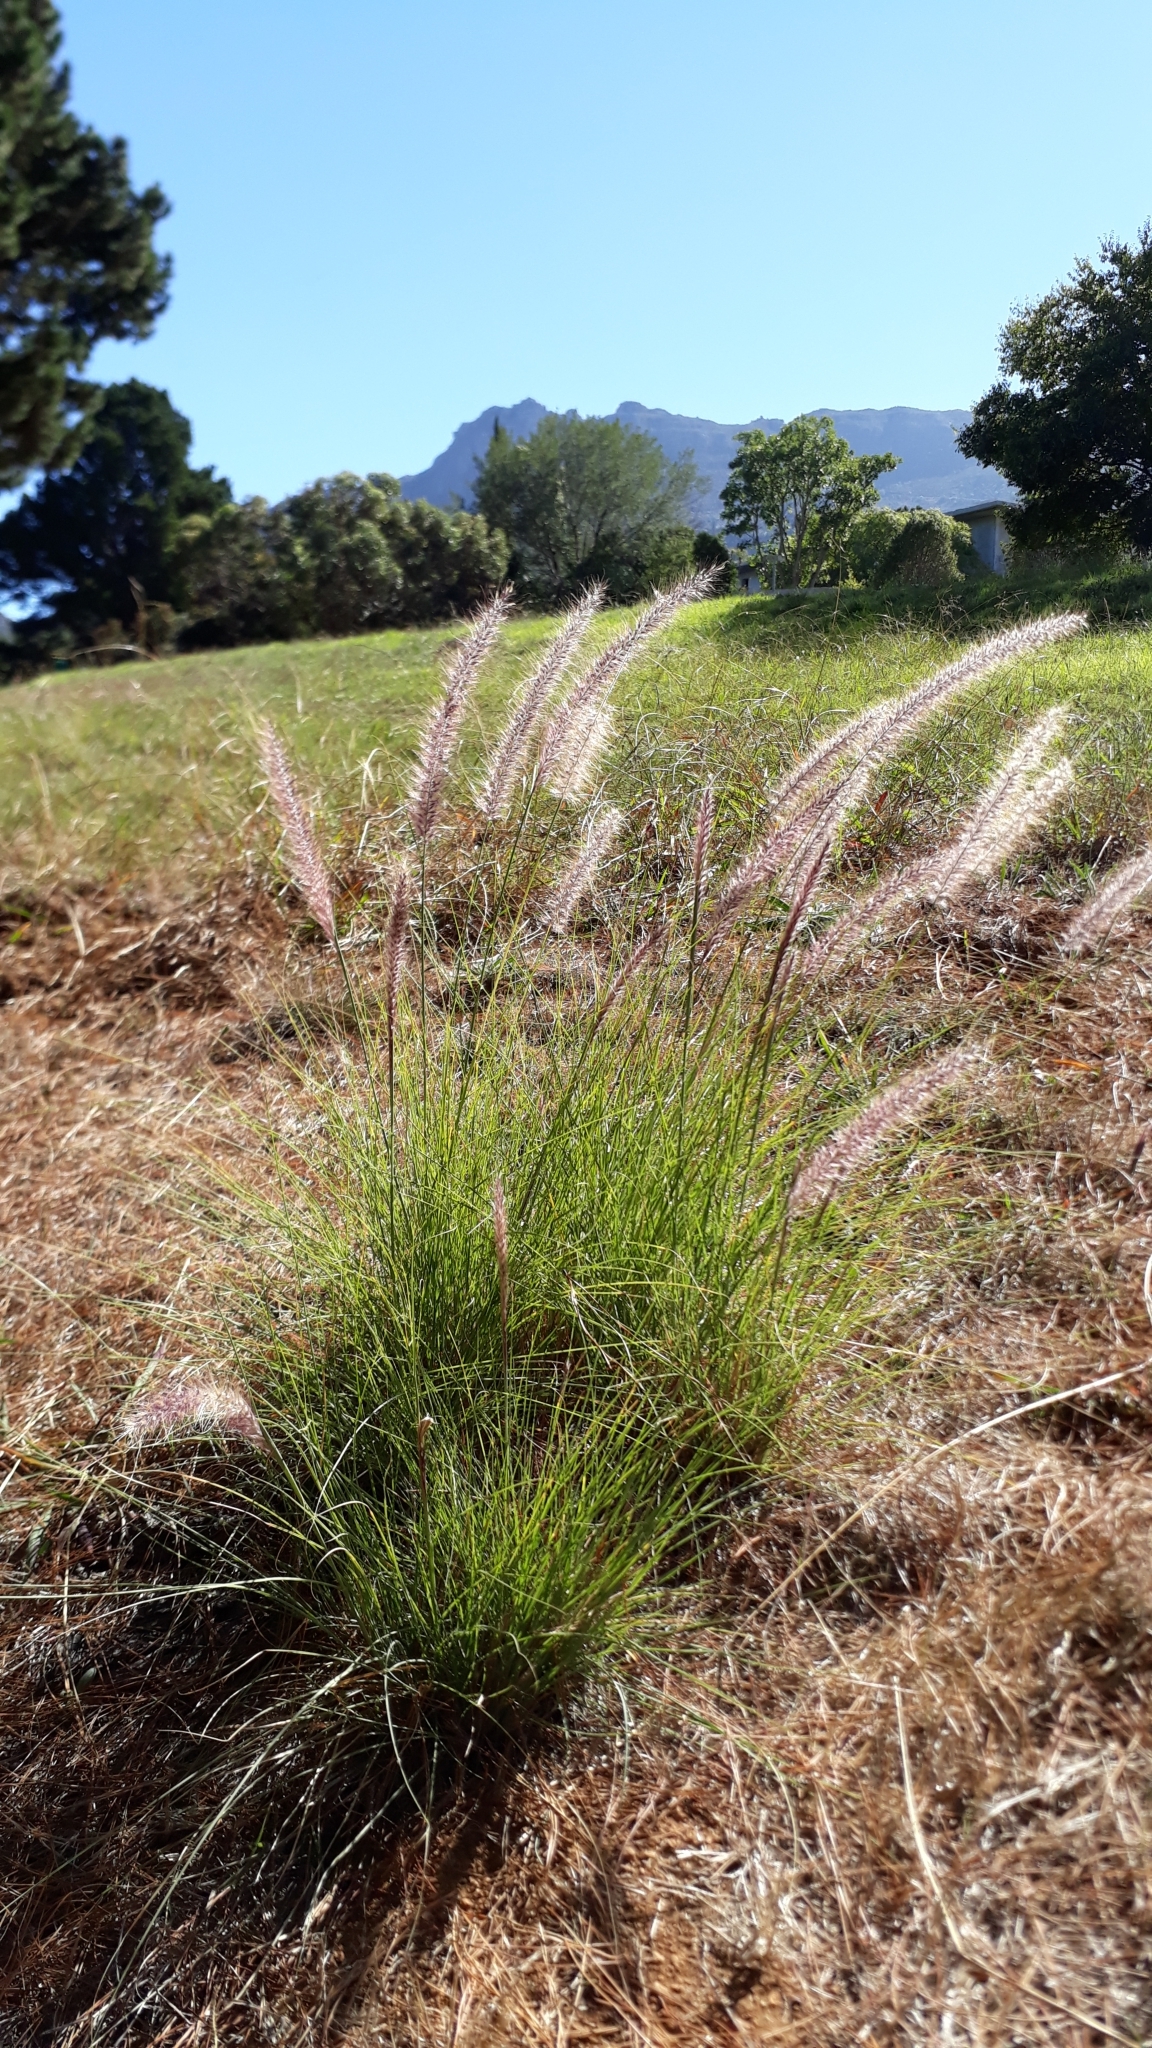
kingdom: Plantae
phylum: Tracheophyta
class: Liliopsida
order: Poales
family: Poaceae
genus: Cenchrus
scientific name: Cenchrus setaceus
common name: Crimson fountaingrass
